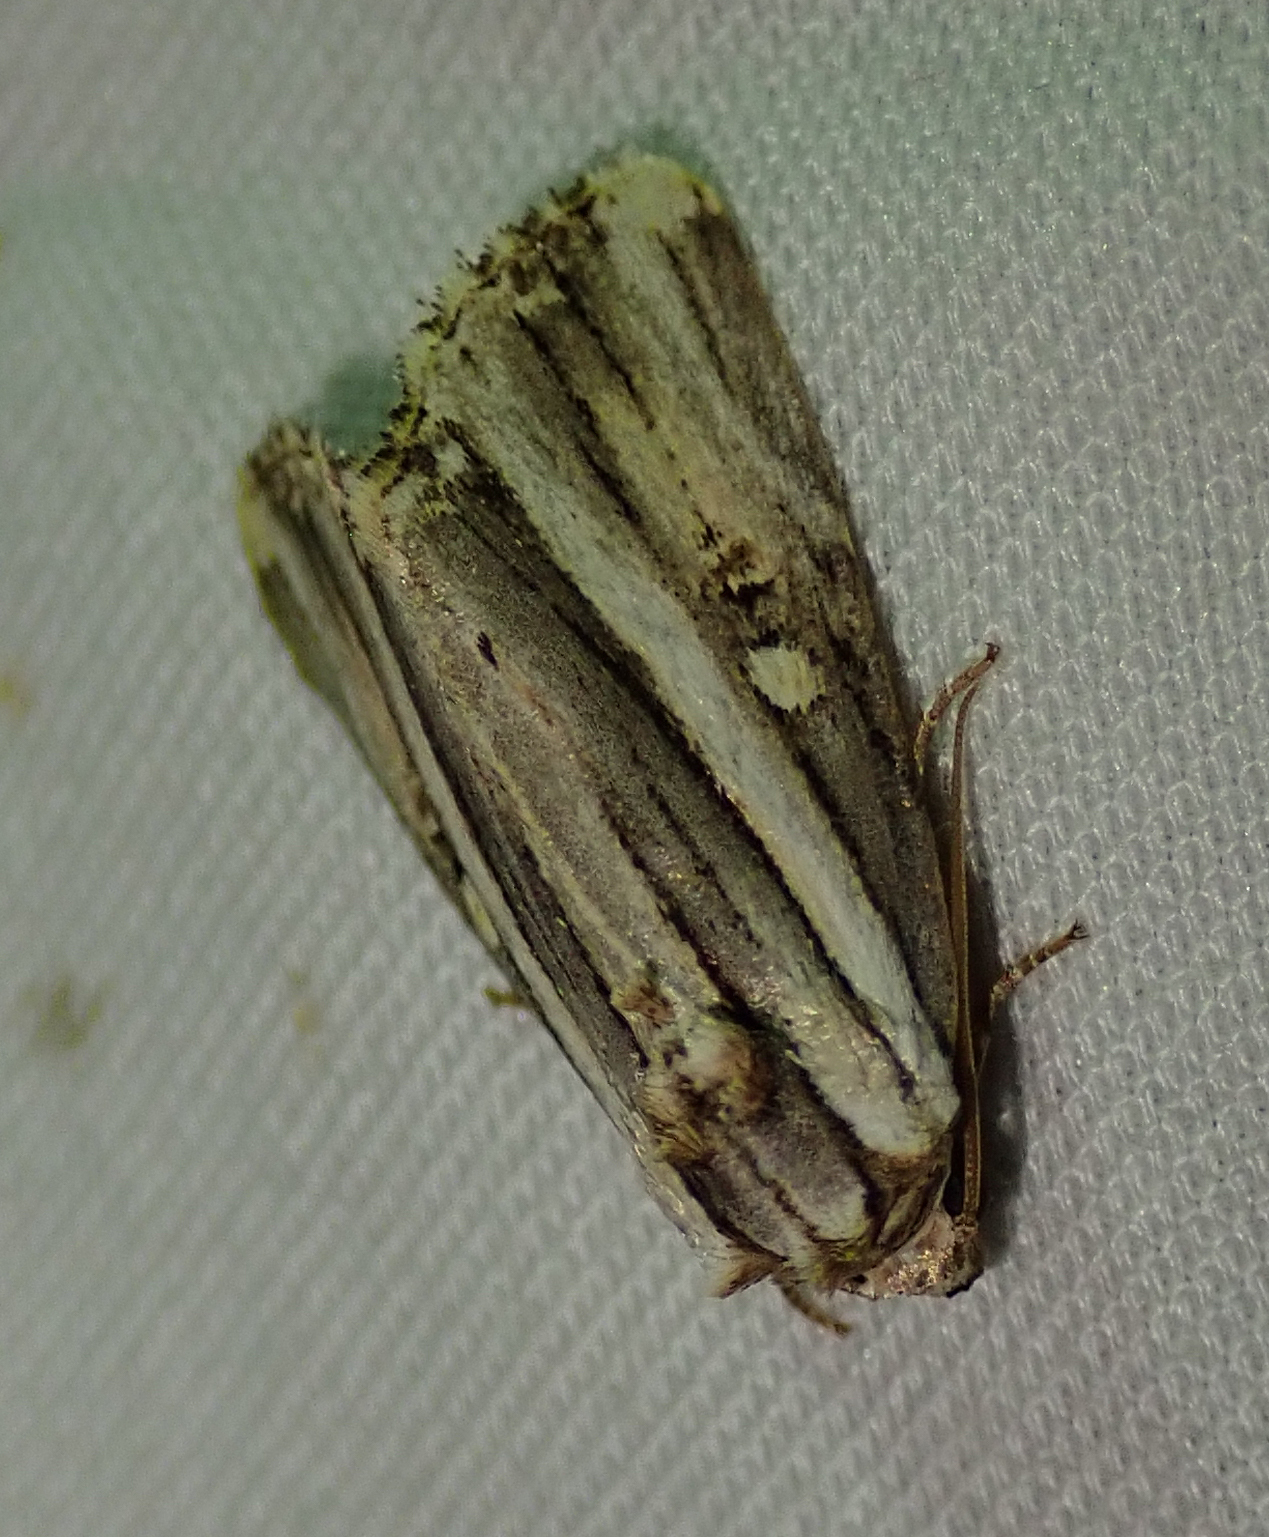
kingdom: Animalia
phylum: Arthropoda
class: Insecta
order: Lepidoptera
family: Noctuidae
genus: Anedhella
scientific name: Anedhella rectiradiata
